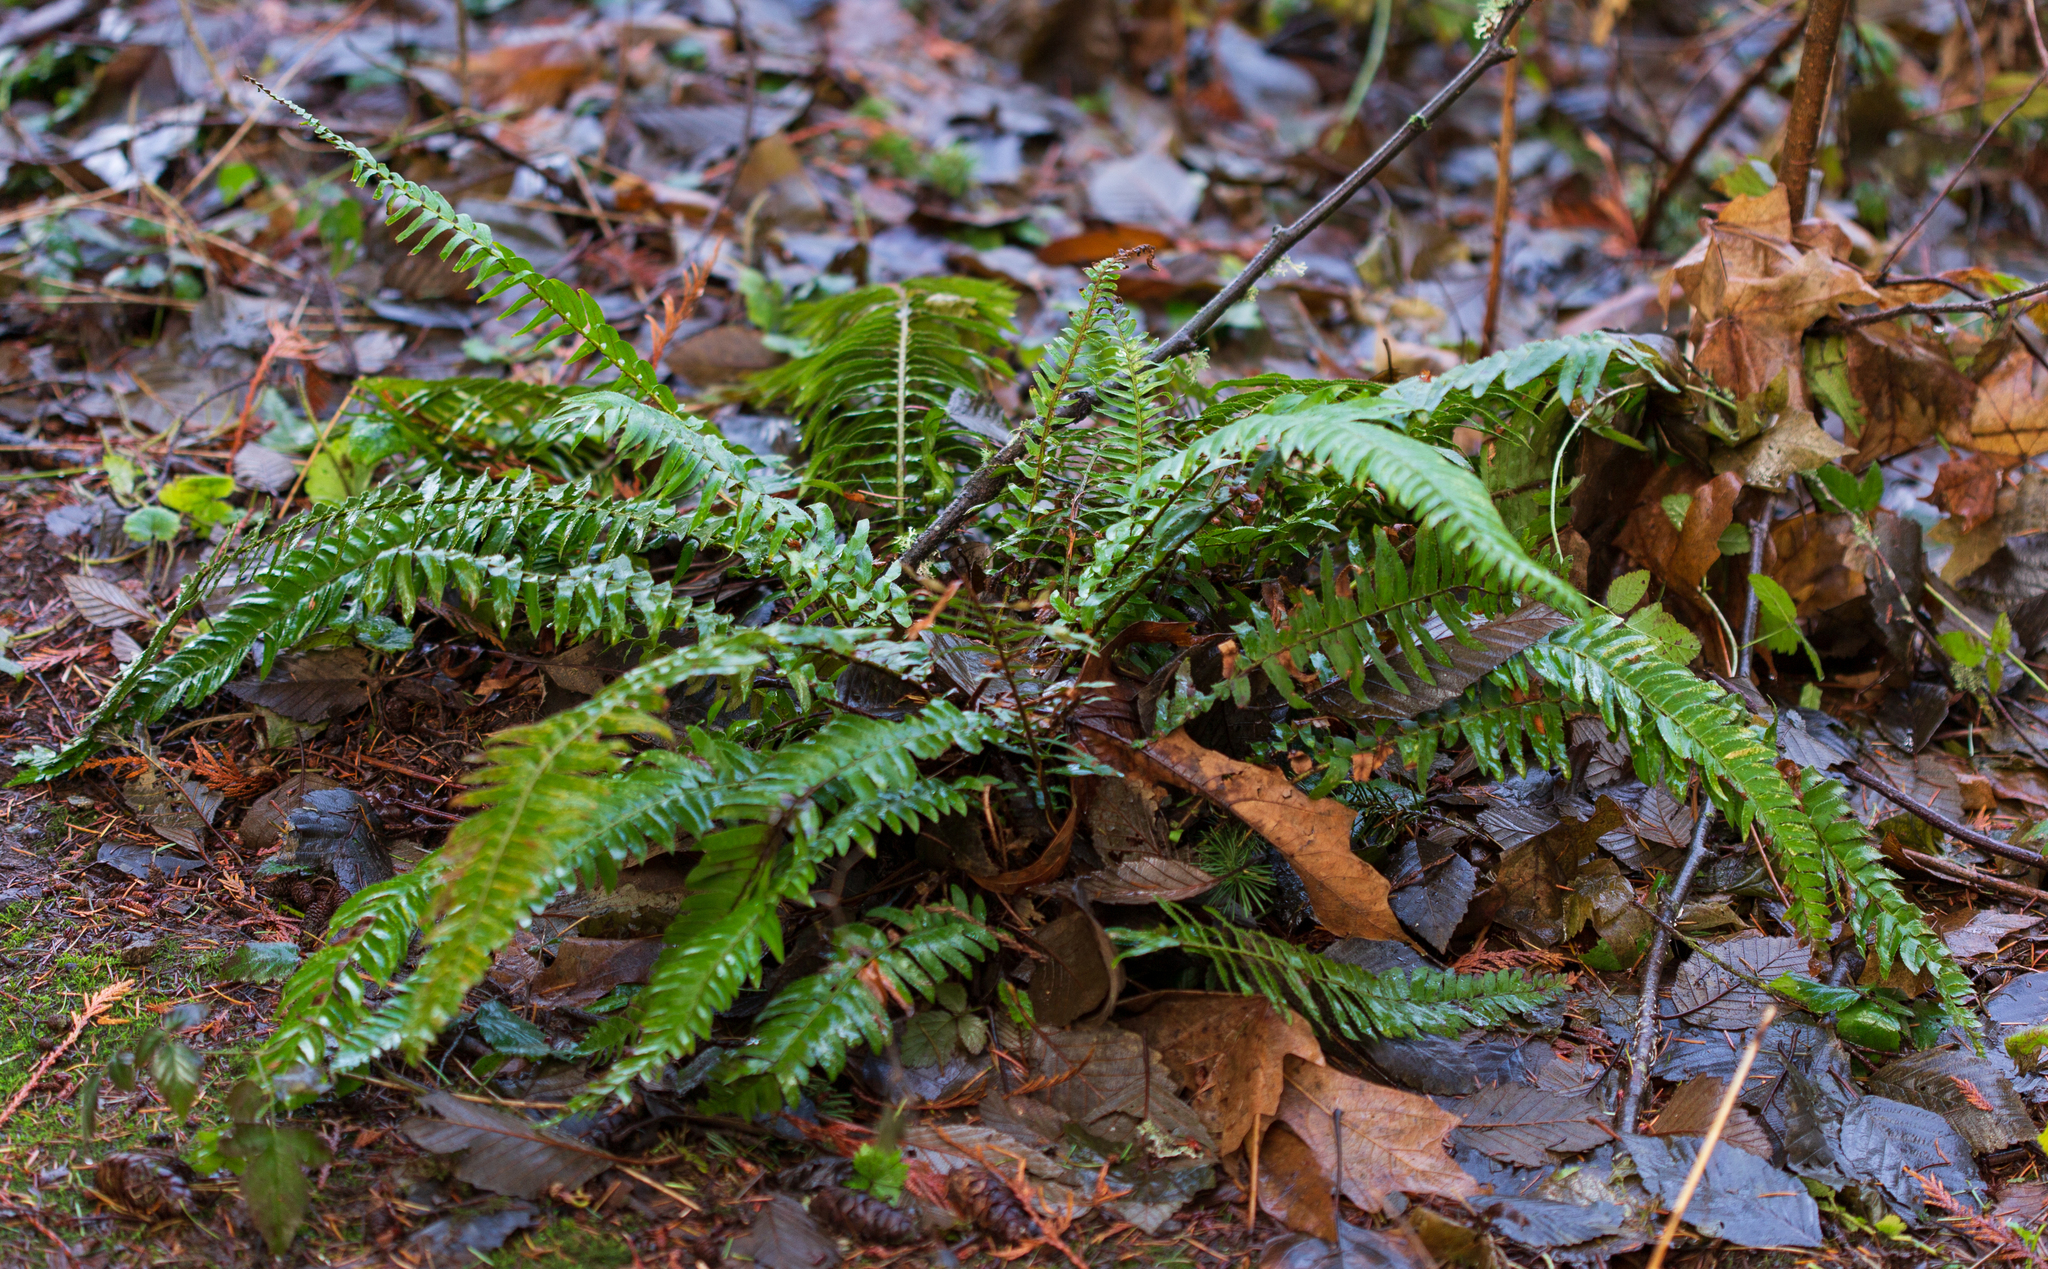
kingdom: Plantae
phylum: Tracheophyta
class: Polypodiopsida
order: Polypodiales
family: Dryopteridaceae
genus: Polystichum
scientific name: Polystichum munitum
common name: Western sword-fern
